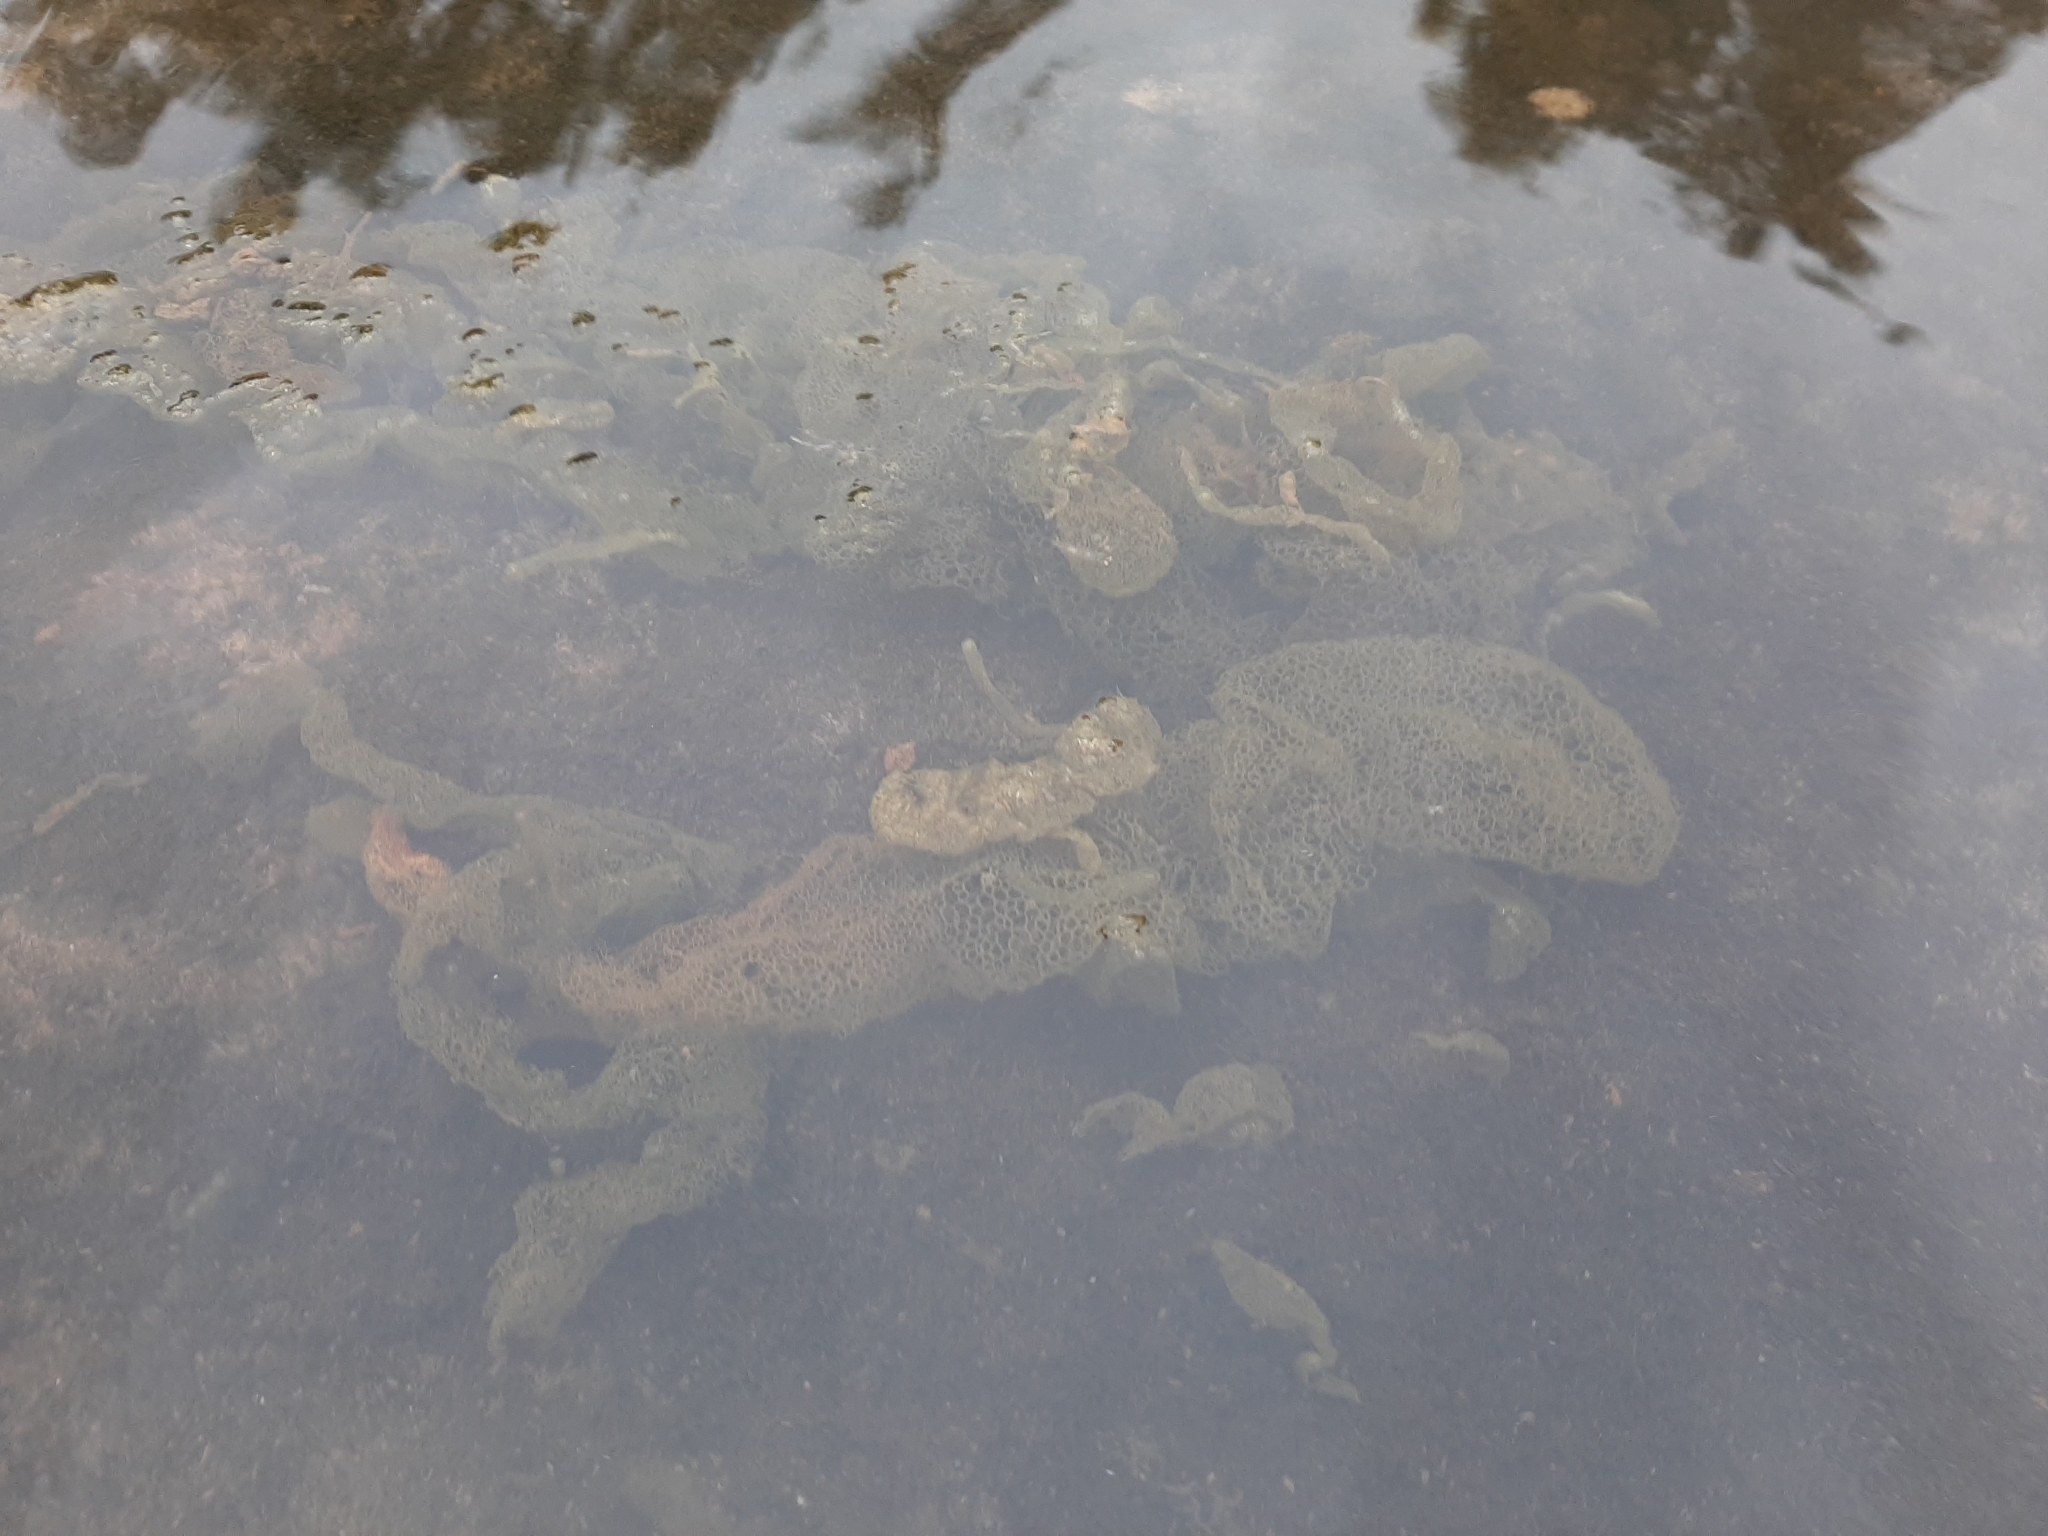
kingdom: Plantae
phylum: Chlorophyta
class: Chlorophyceae
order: Sphaeropleales
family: Hydrodictyaceae
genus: Hydrodictyon
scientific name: Hydrodictyon reticulatum
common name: Water net
